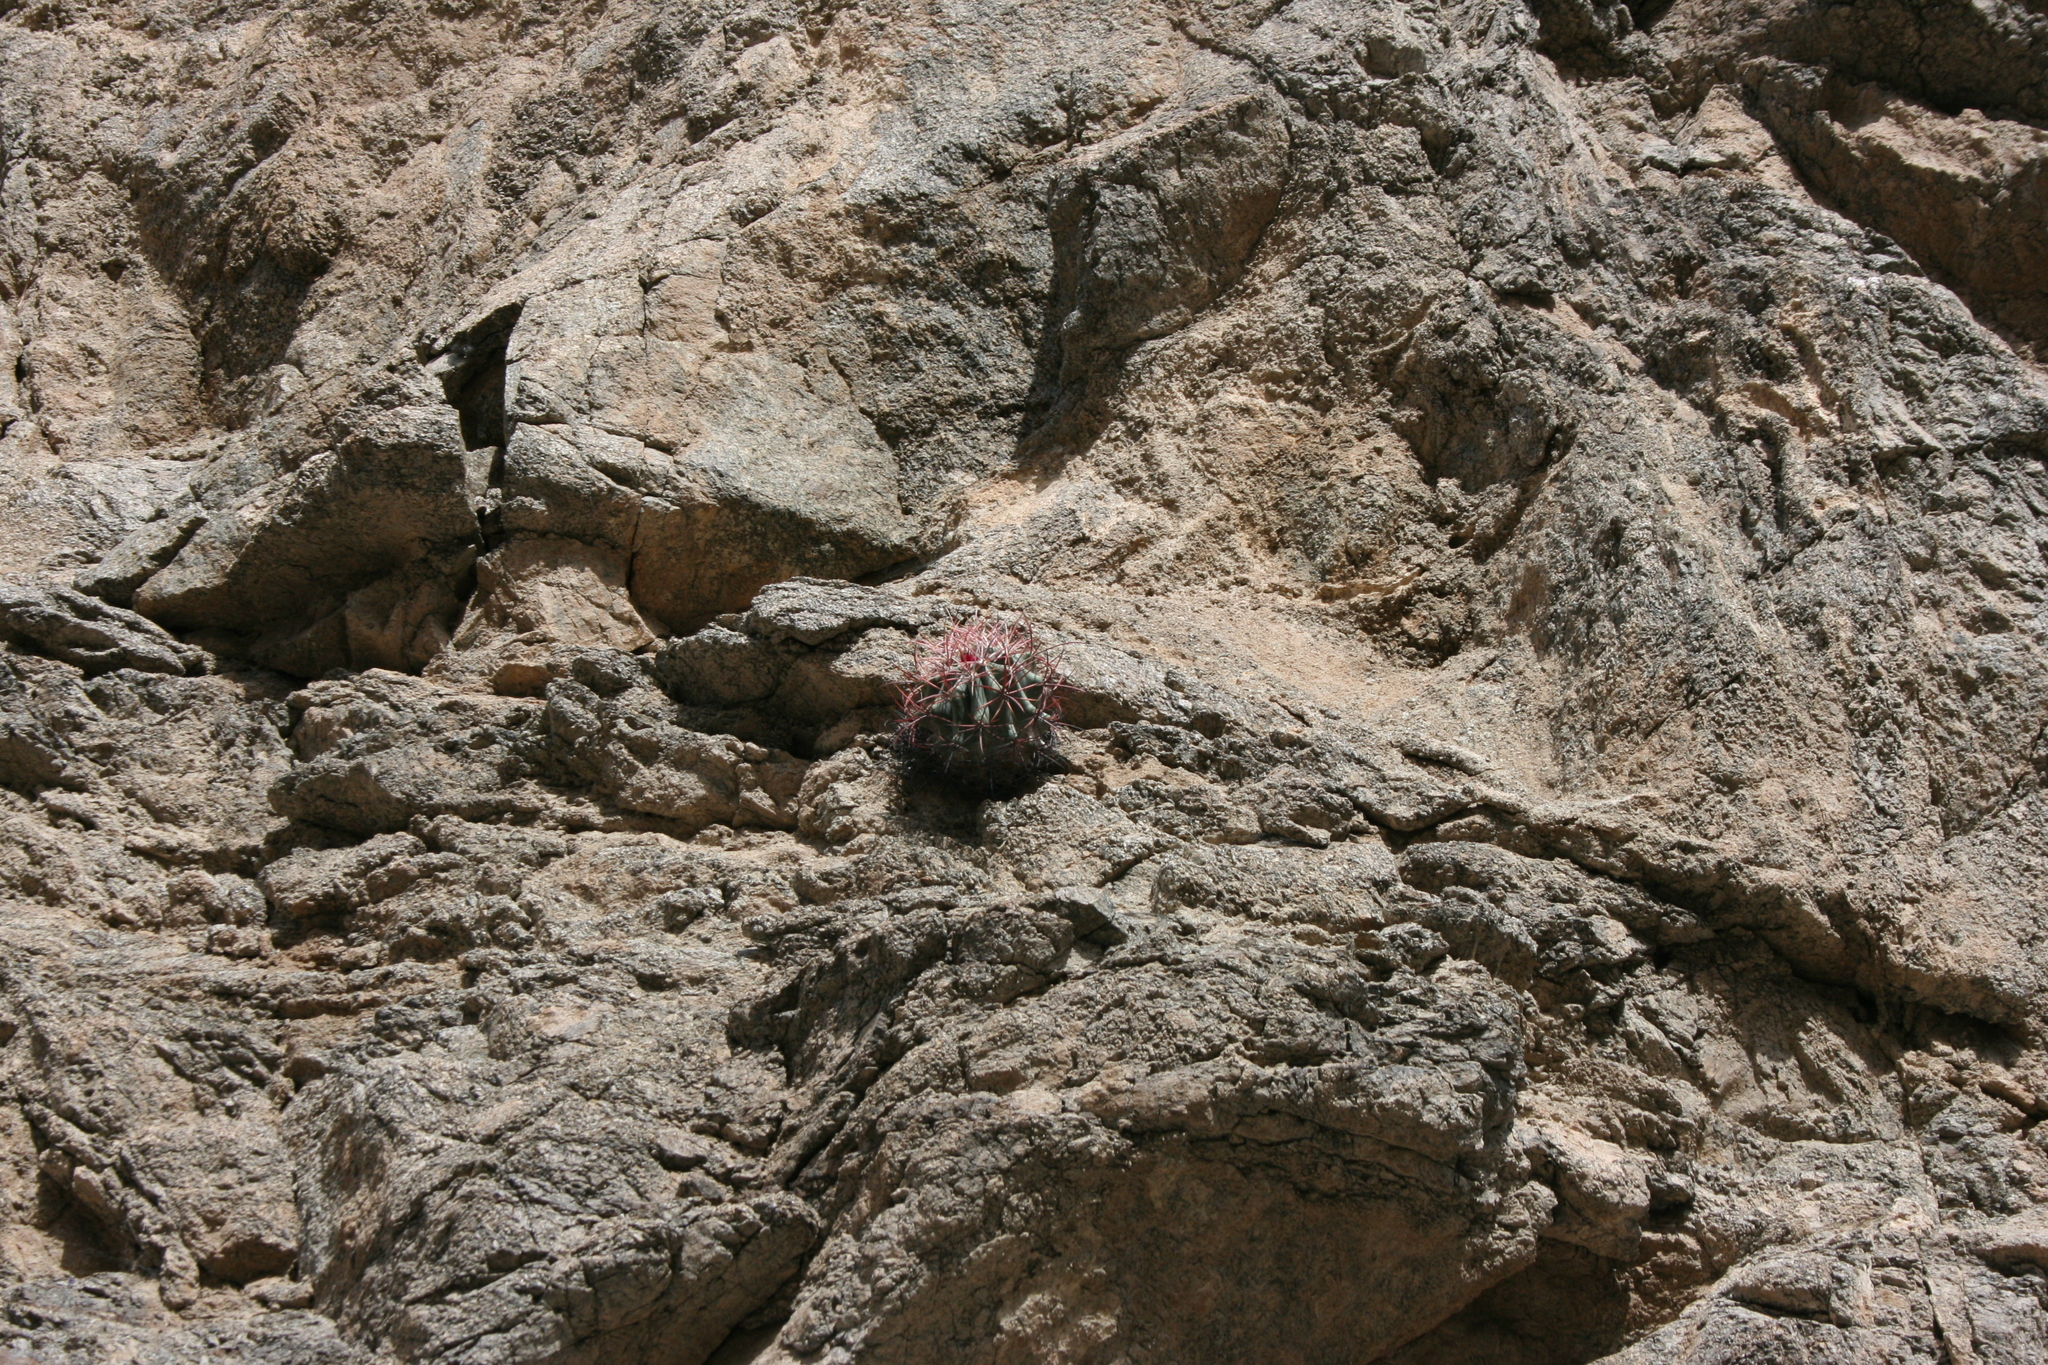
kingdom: Plantae
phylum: Tracheophyta
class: Magnoliopsida
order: Caryophyllales
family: Cactaceae
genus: Ferocactus
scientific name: Ferocactus cylindraceus
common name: California barrel cactus
